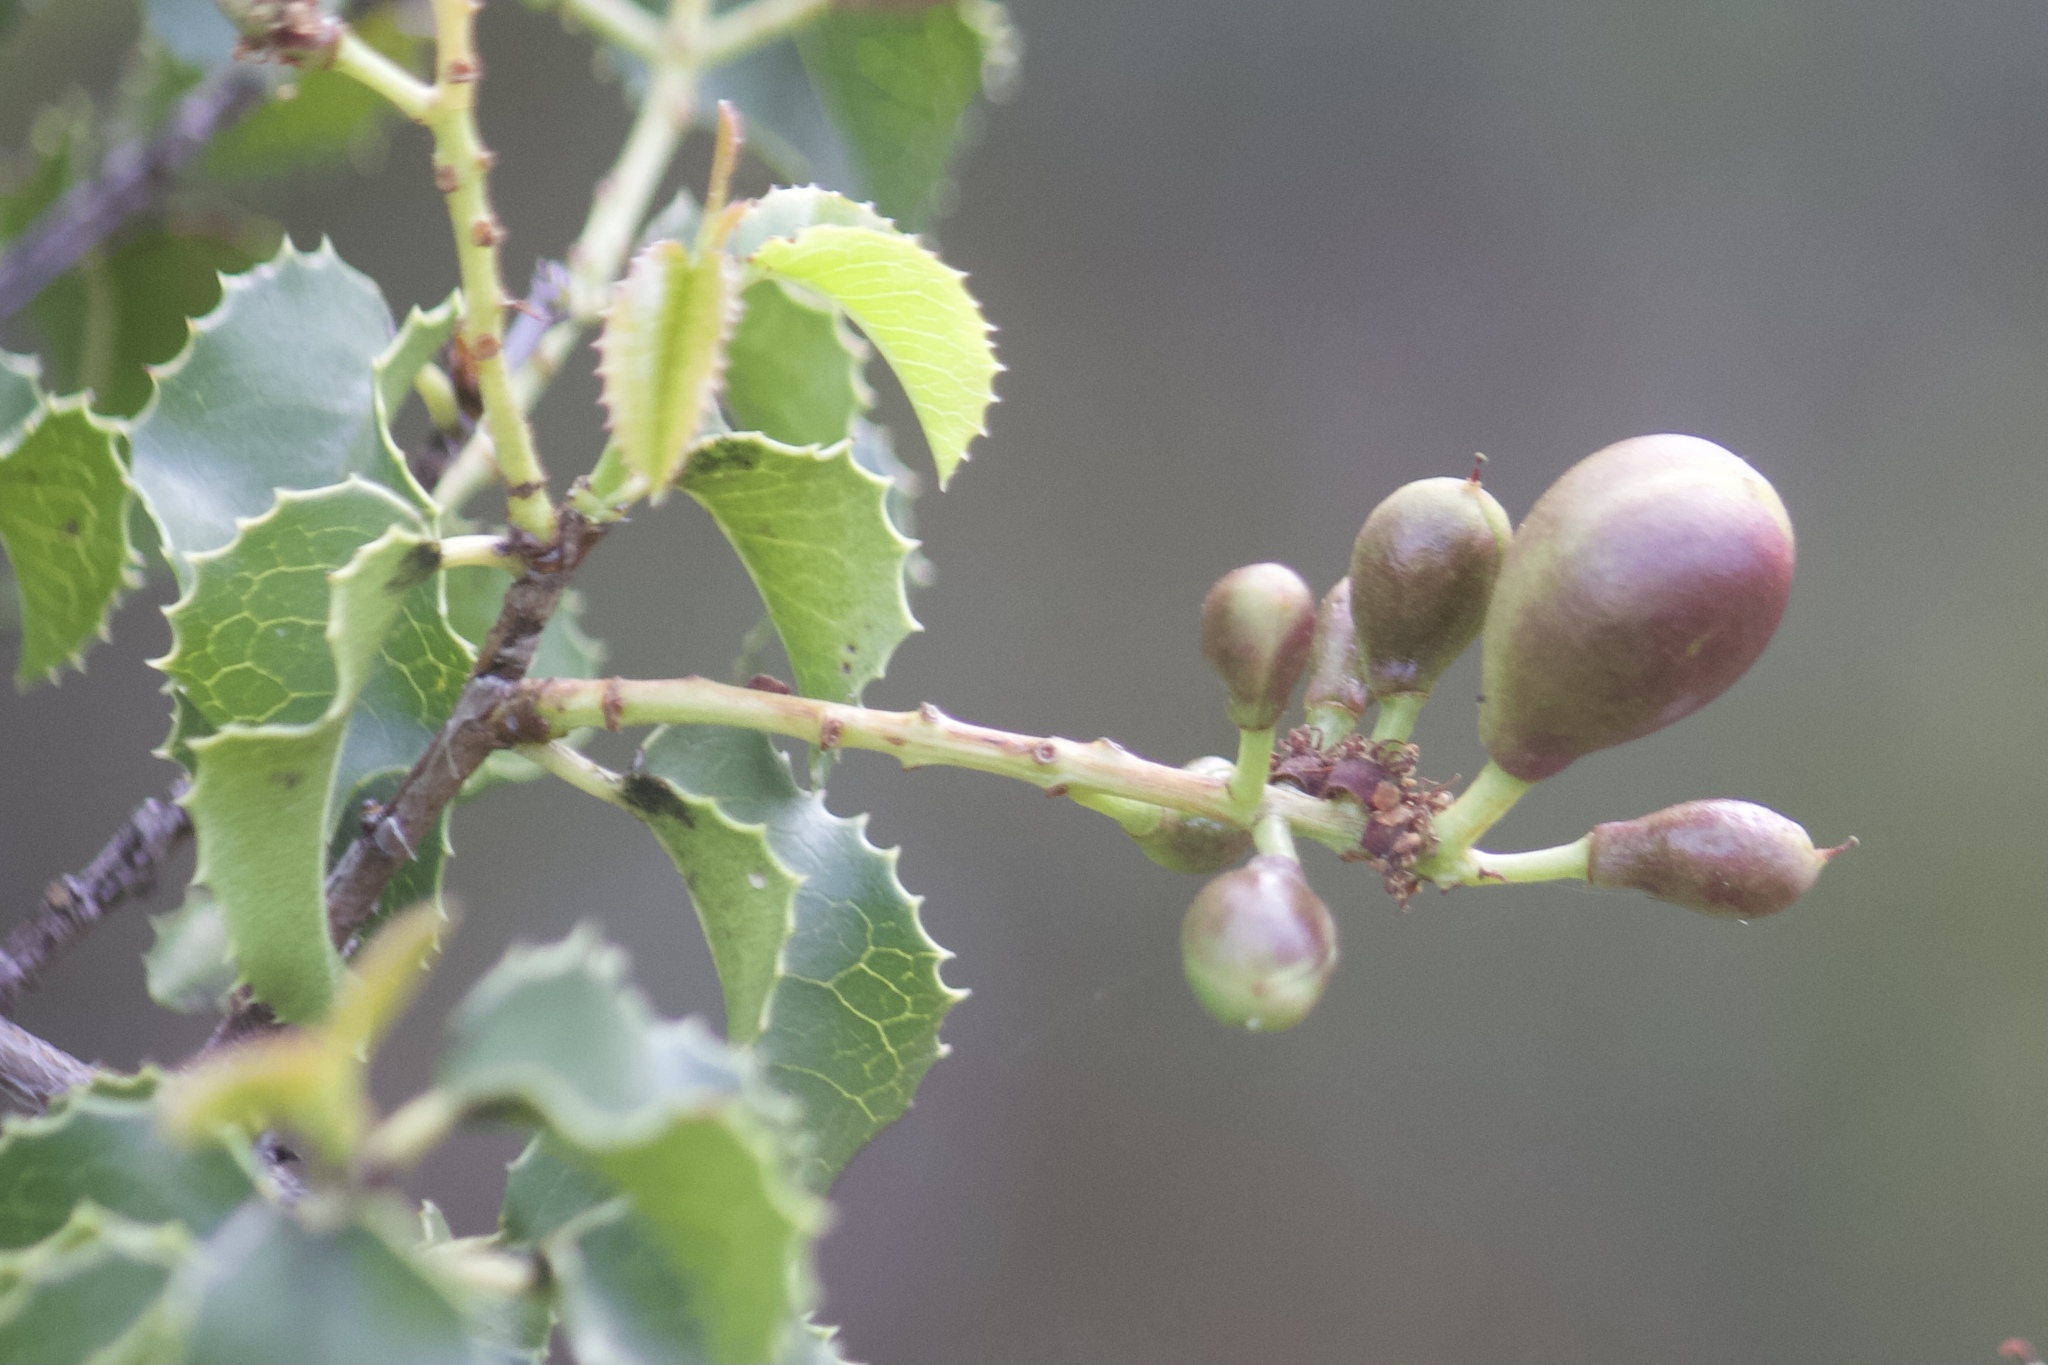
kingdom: Plantae
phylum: Tracheophyta
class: Magnoliopsida
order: Rosales
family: Rosaceae
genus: Prunus
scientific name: Prunus ilicifolia
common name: Hollyleaf cherry
